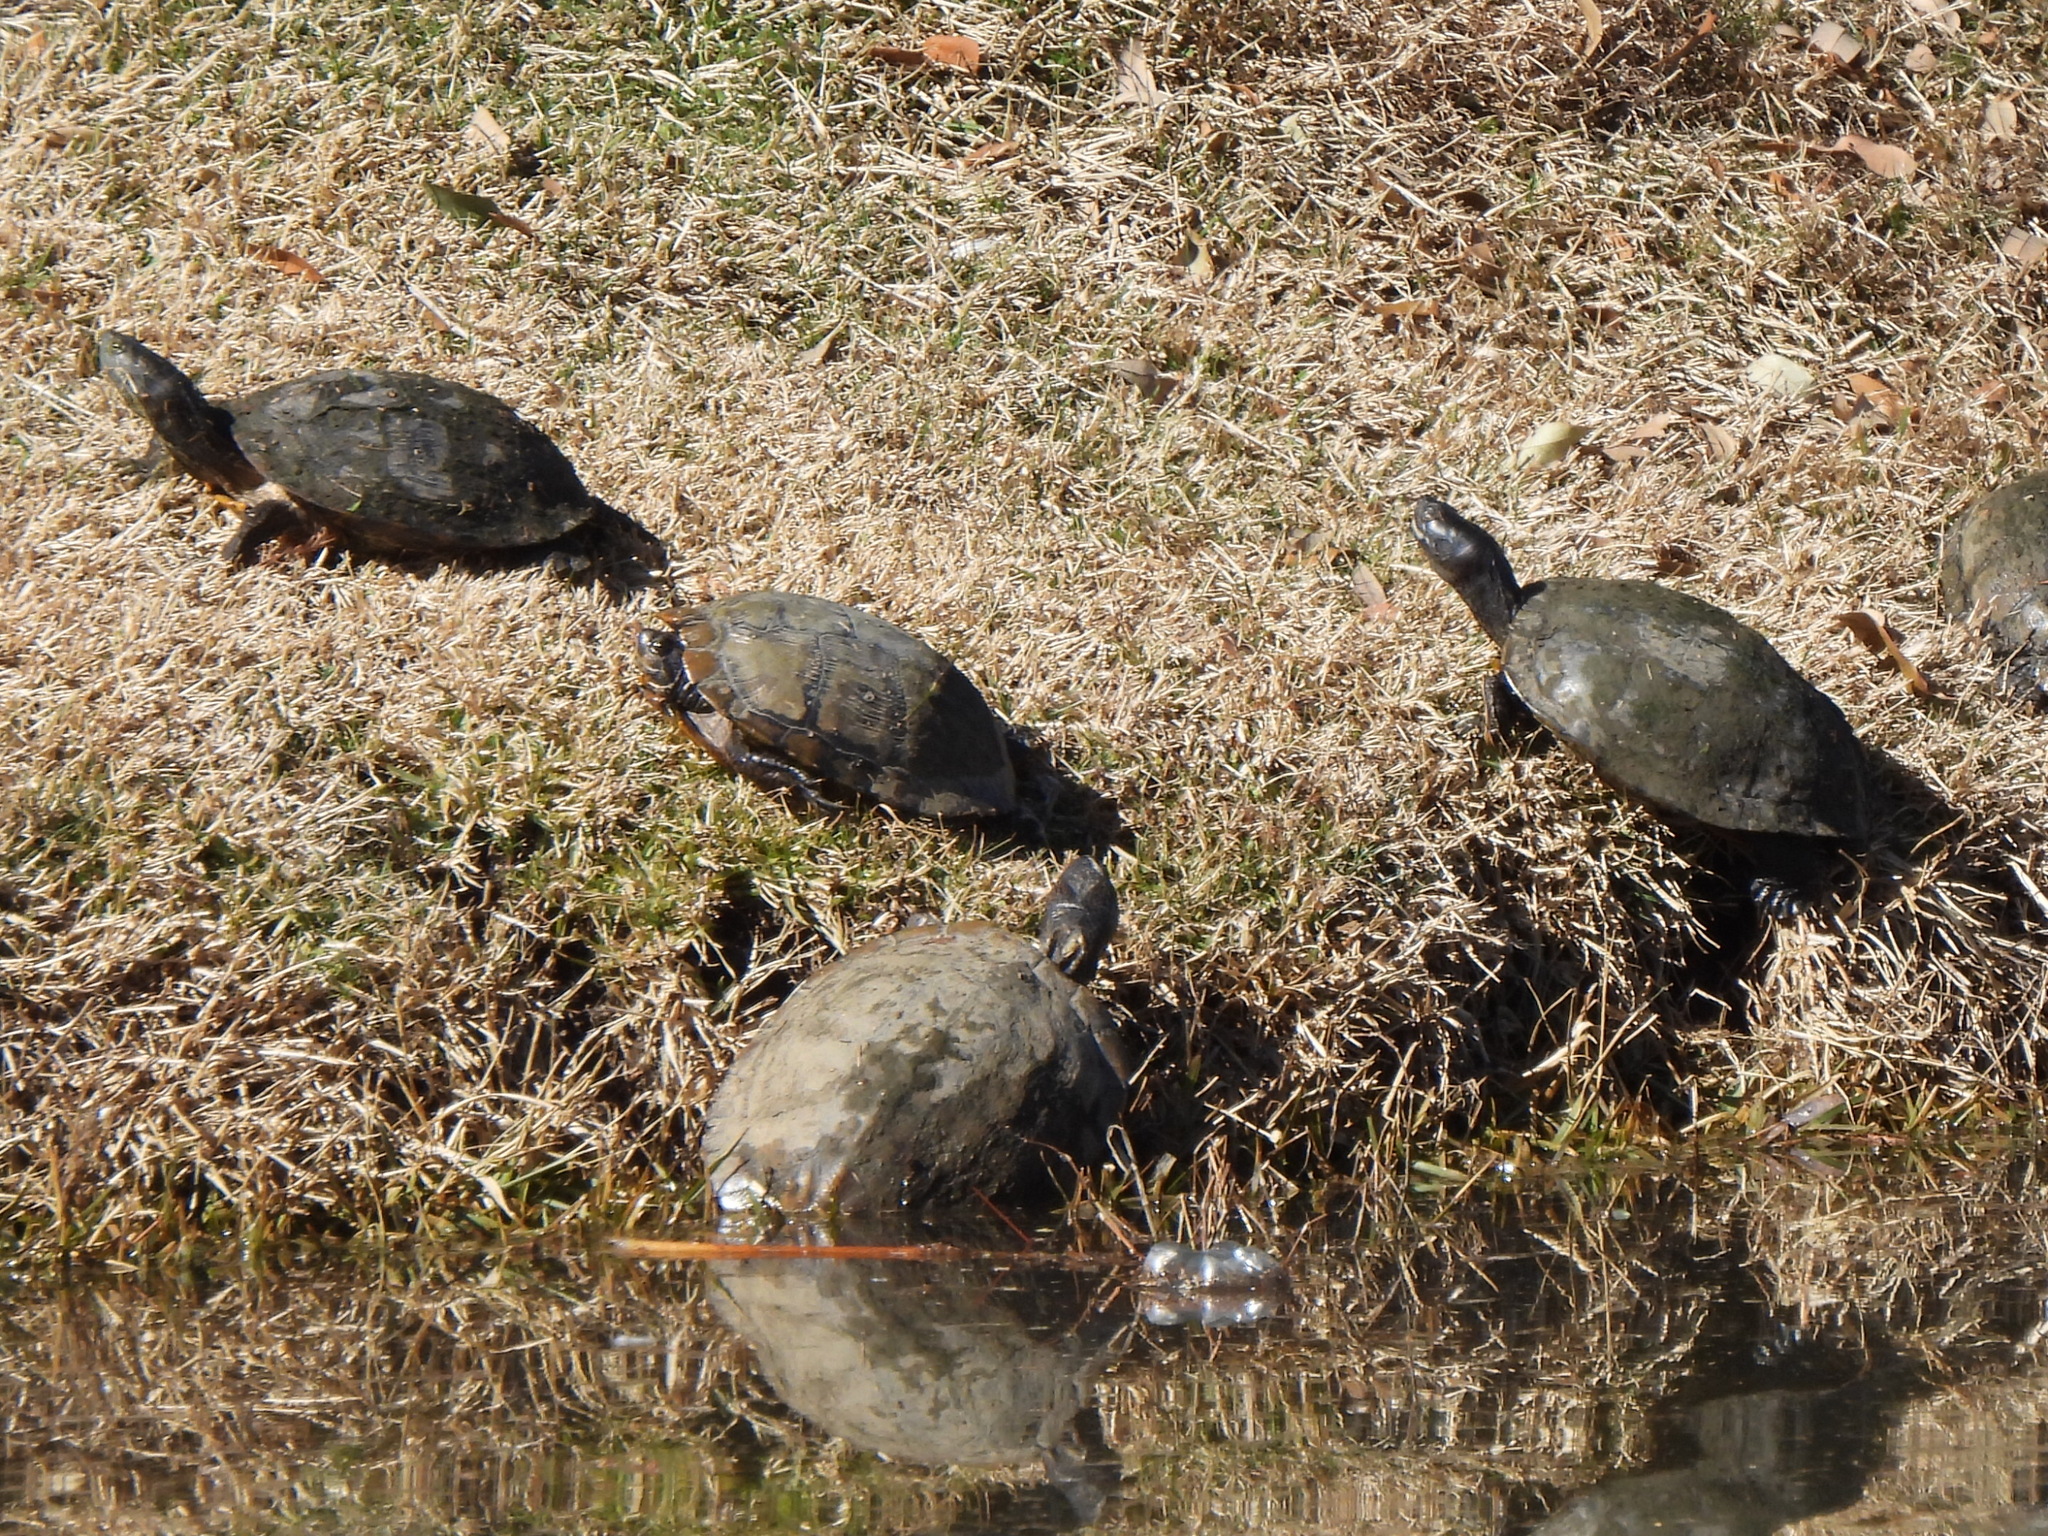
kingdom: Animalia
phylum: Chordata
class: Testudines
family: Emydidae
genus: Trachemys
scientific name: Trachemys scripta
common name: Slider
